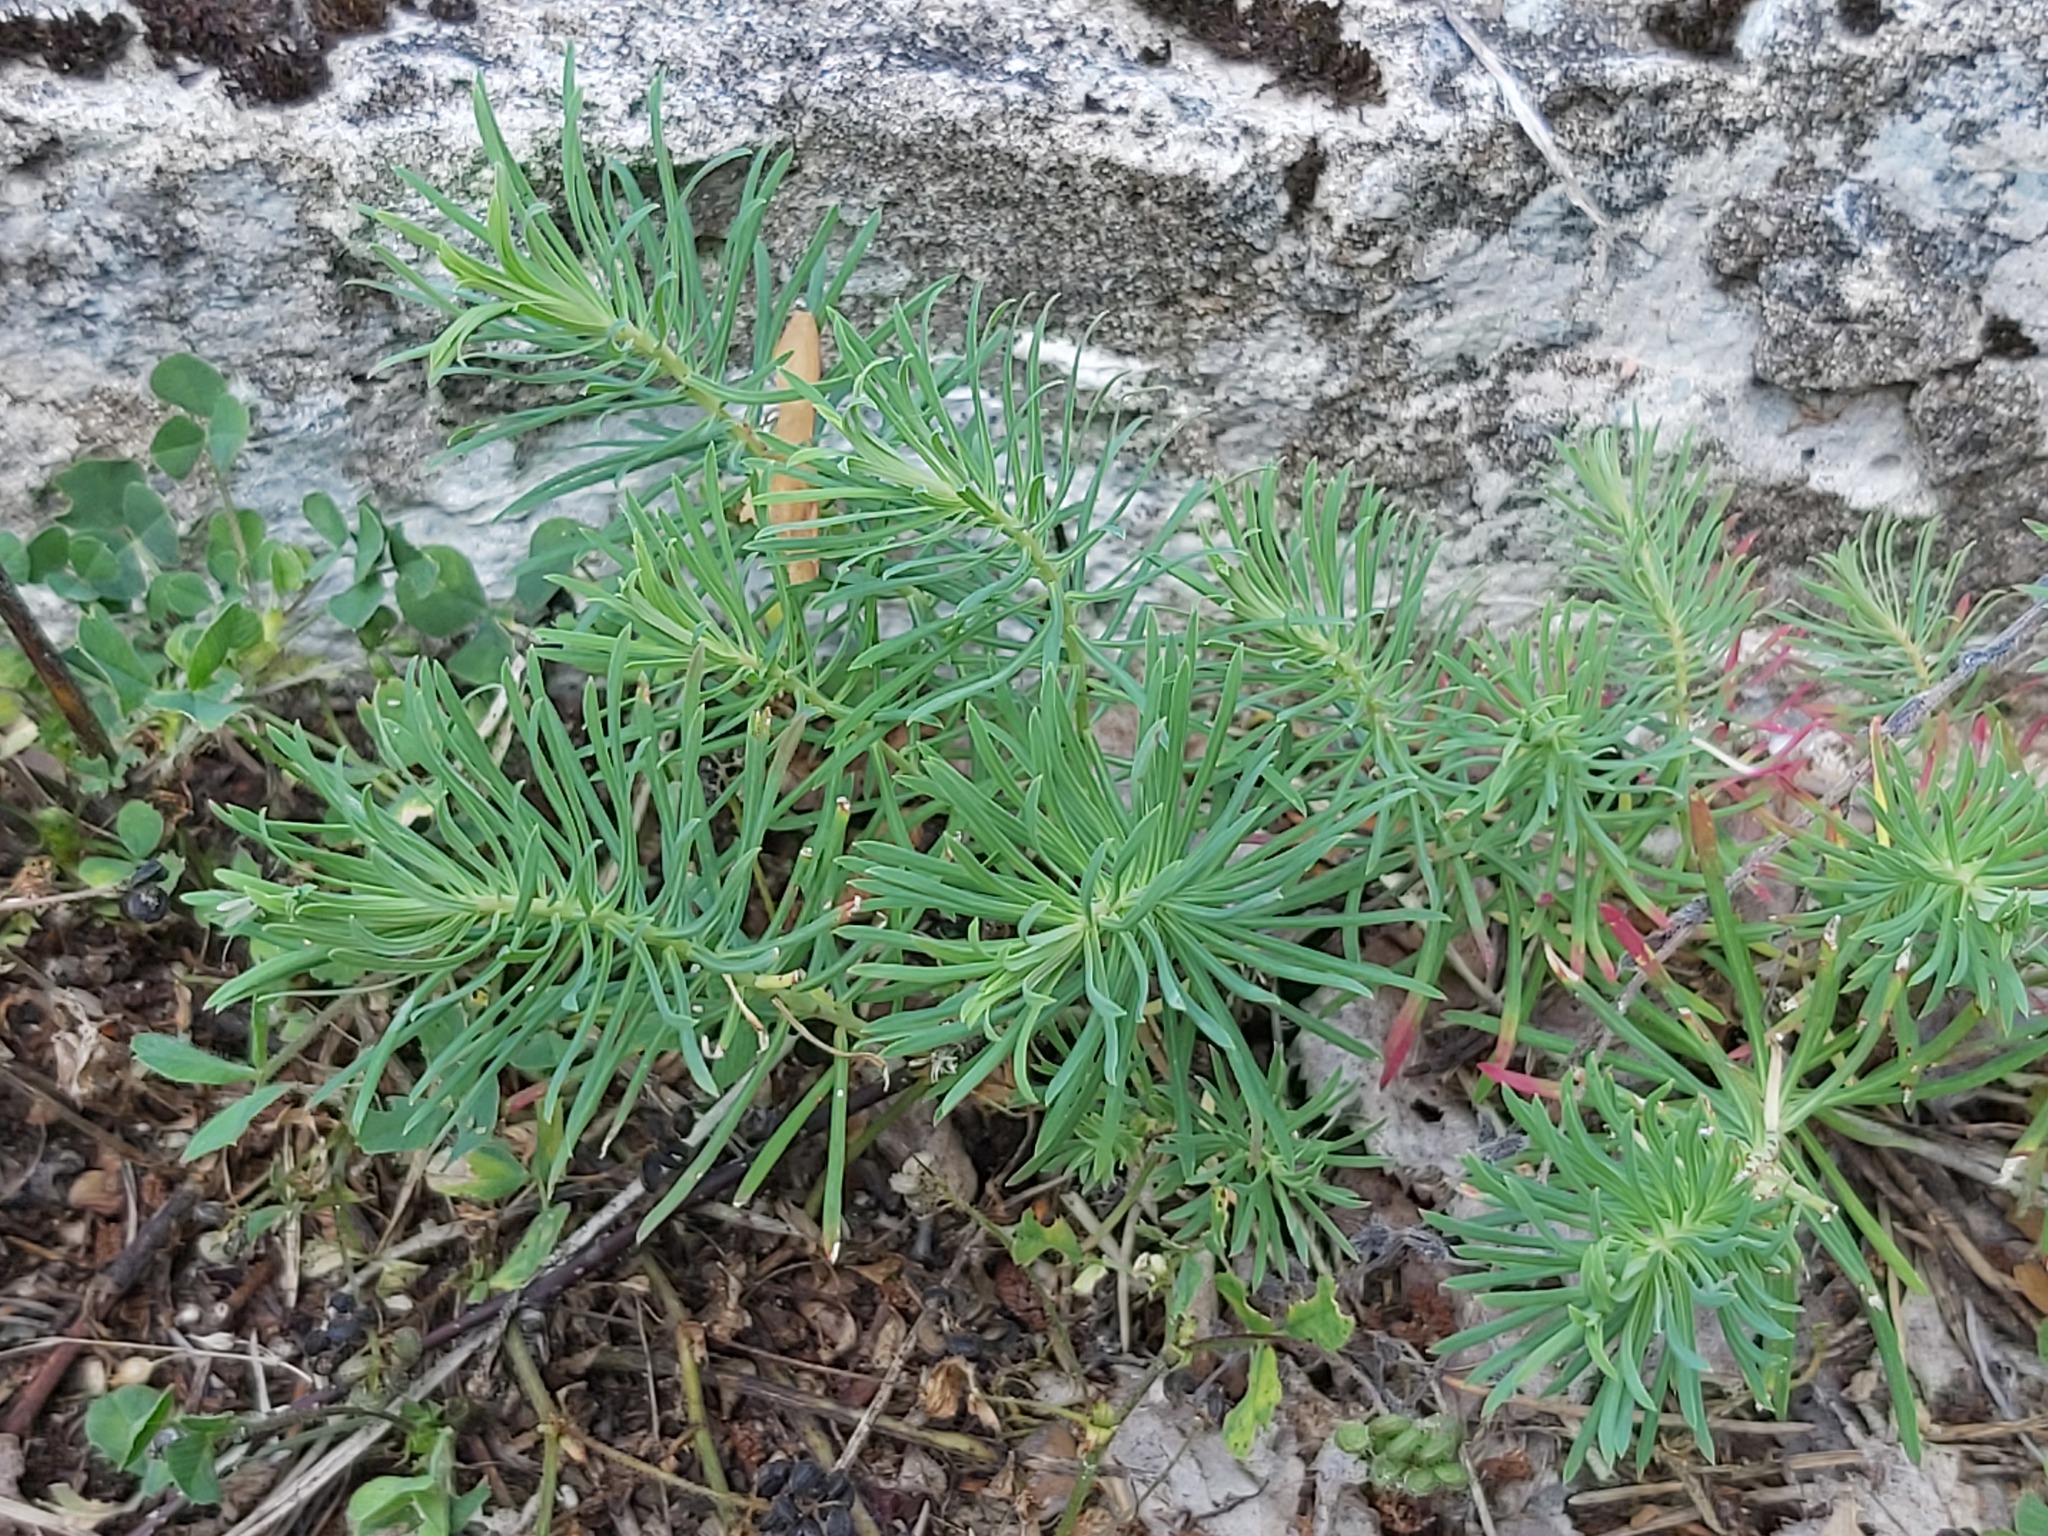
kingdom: Plantae
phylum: Tracheophyta
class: Magnoliopsida
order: Malpighiales
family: Euphorbiaceae
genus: Euphorbia
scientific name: Euphorbia cyparissias
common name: Cypress spurge
